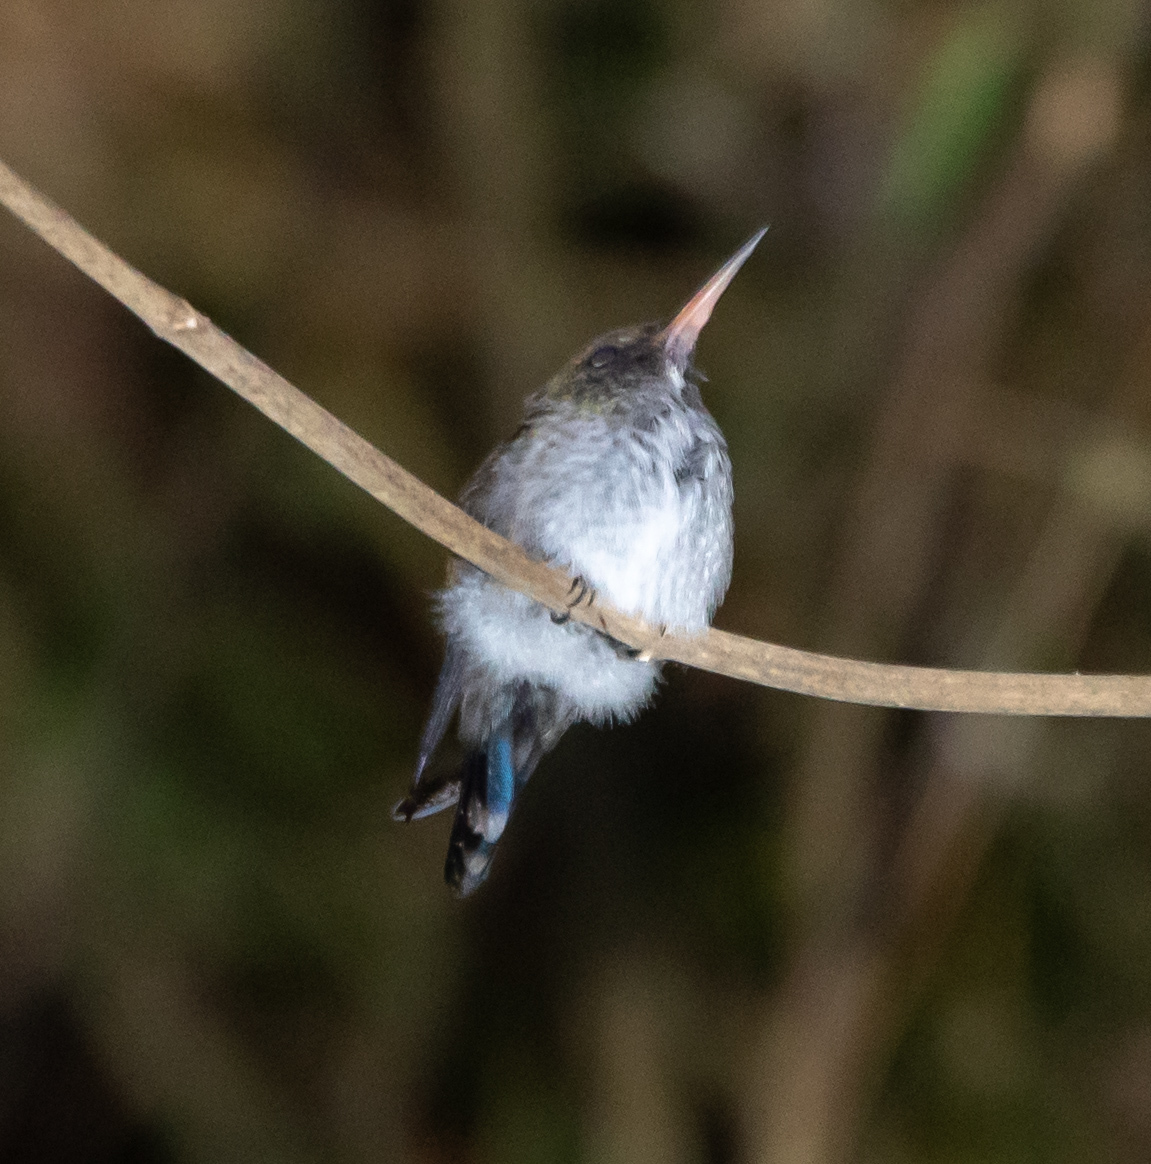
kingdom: Animalia
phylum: Chordata
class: Aves
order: Apodiformes
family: Trochilidae
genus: Chlorestes
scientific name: Chlorestes julie
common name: Violet-bellied hummingbird
